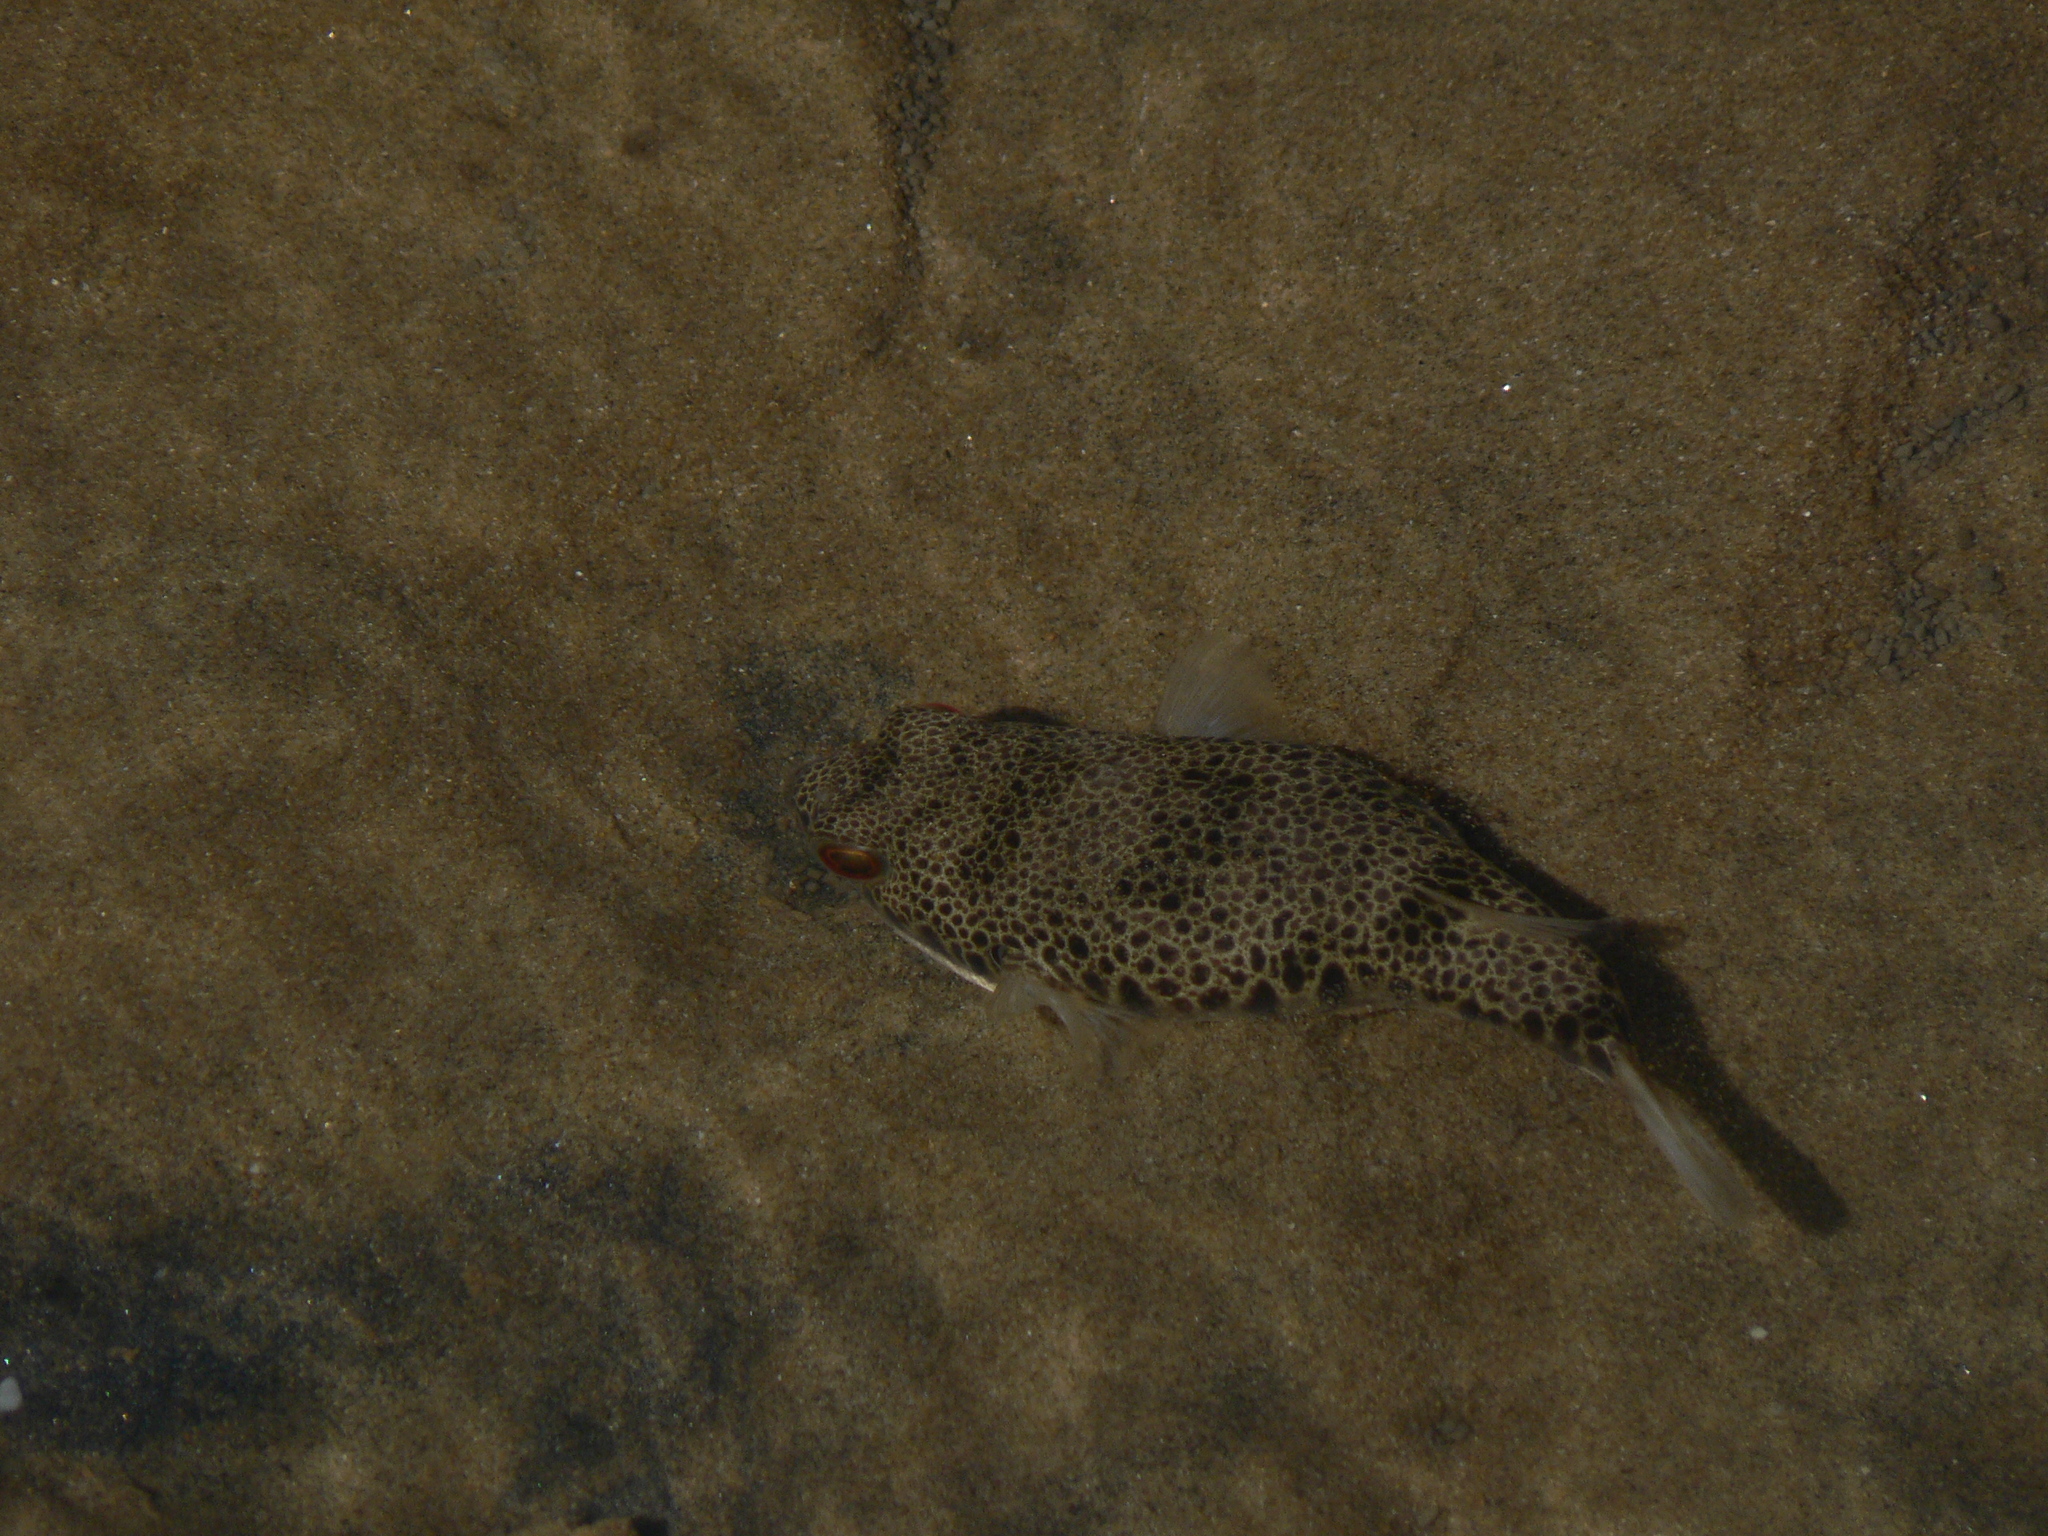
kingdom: Animalia
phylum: Chordata
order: Tetraodontiformes
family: Tetraodontidae
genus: Tetractenos
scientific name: Tetractenos hamiltoni
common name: Common toadfish
